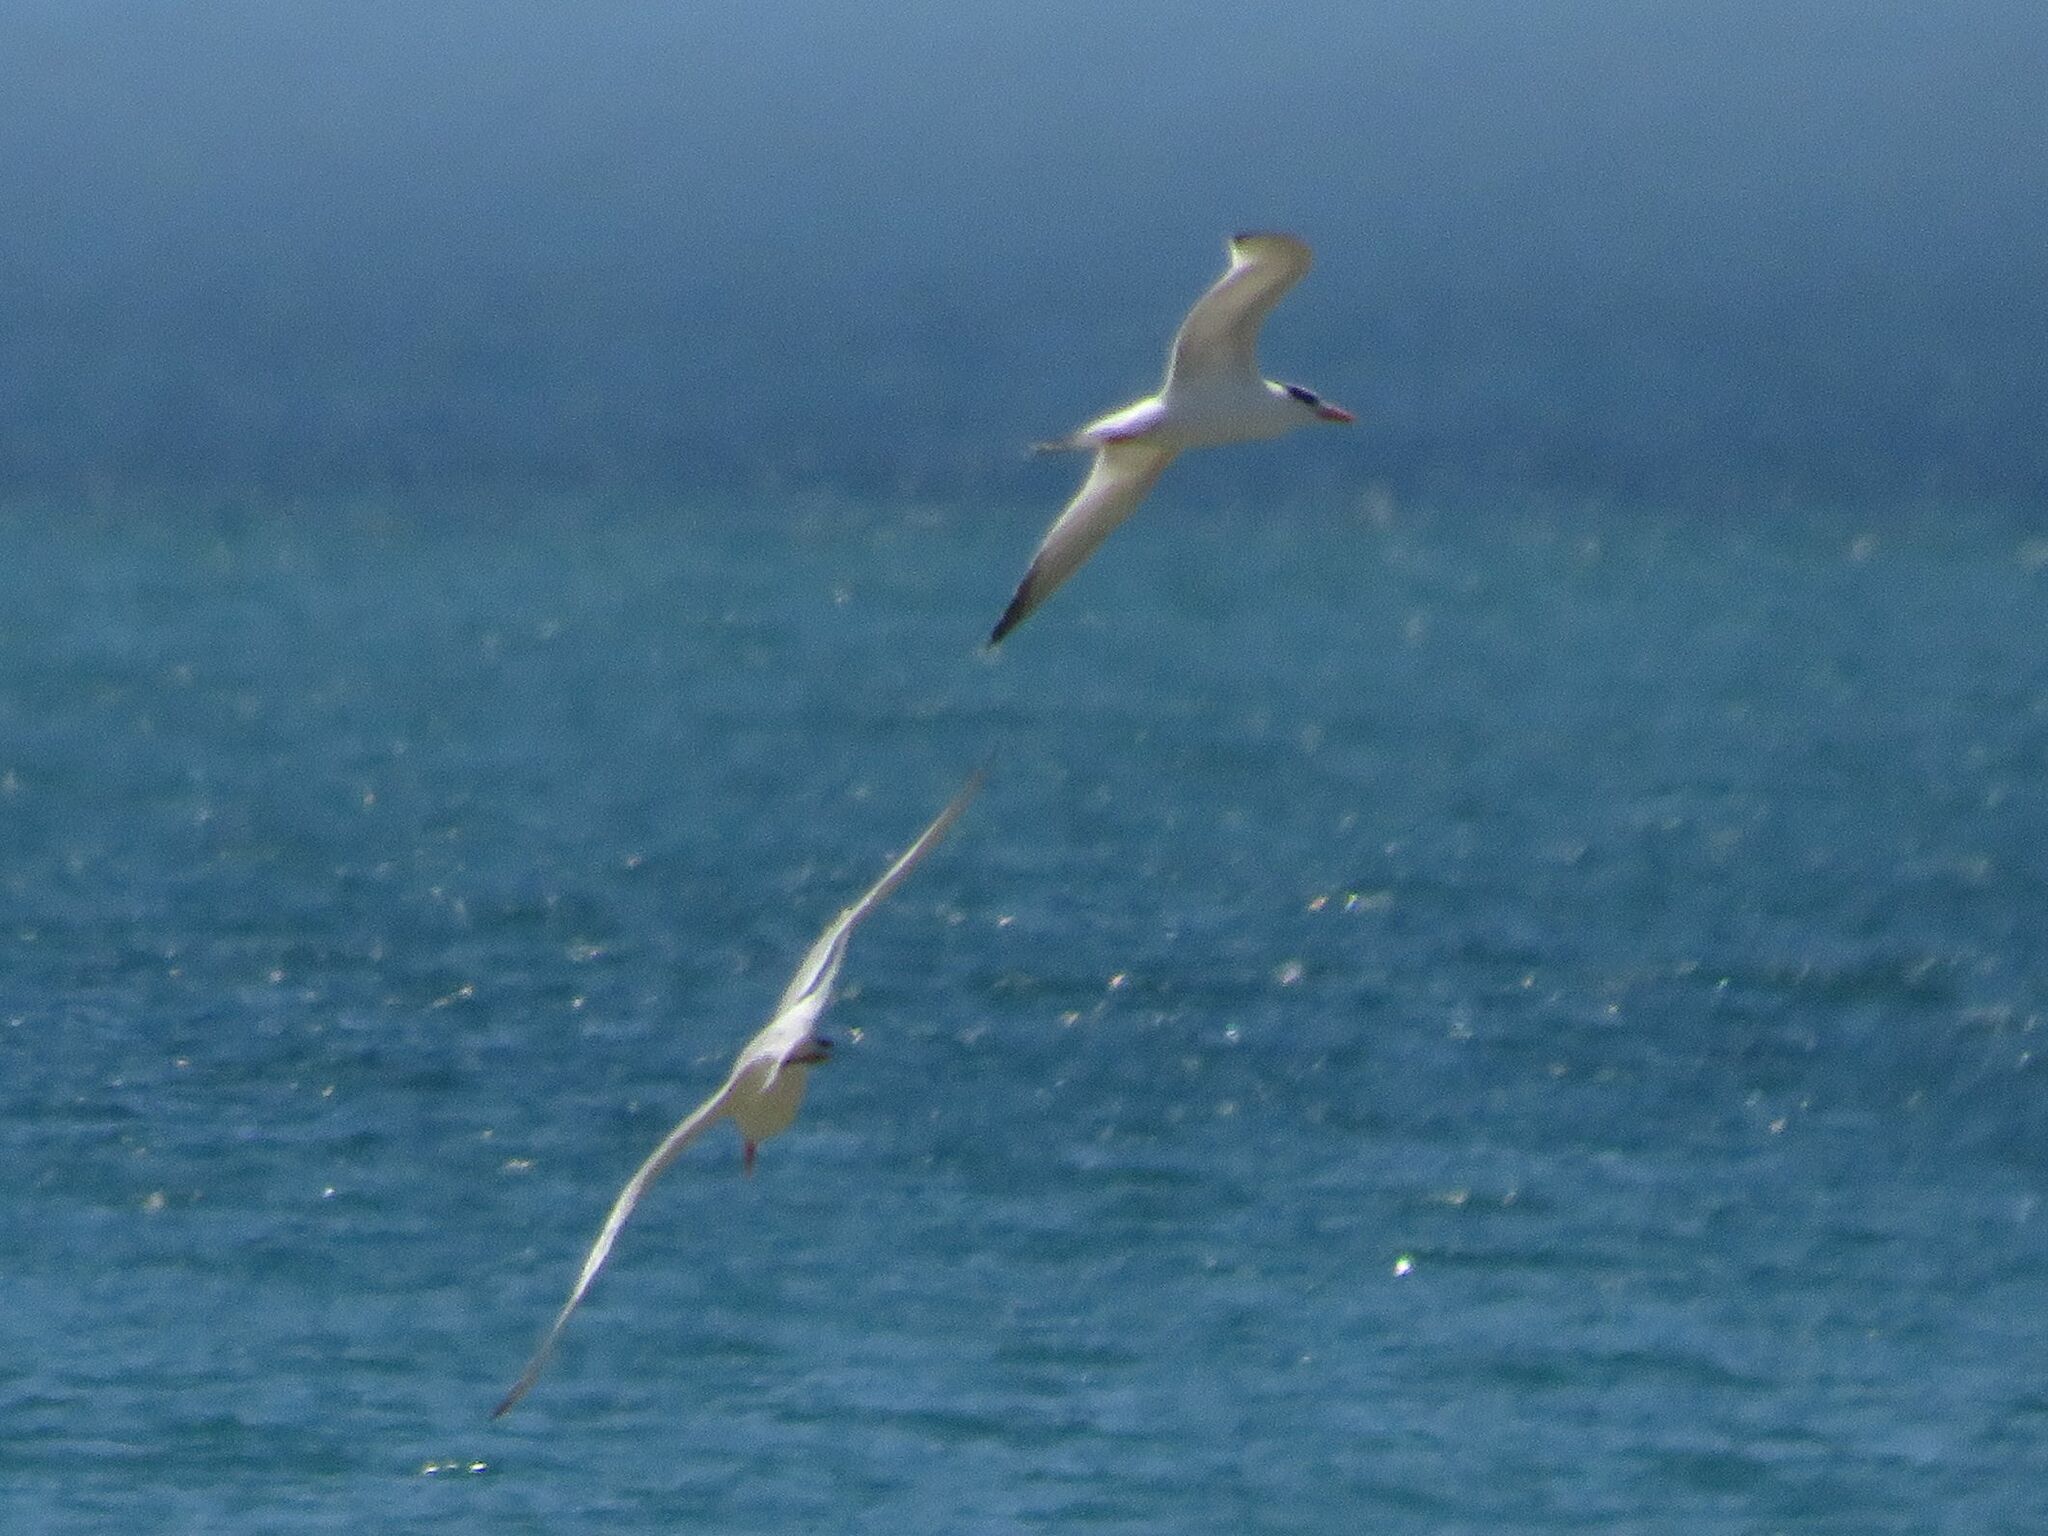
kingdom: Animalia
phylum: Chordata
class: Aves
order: Charadriiformes
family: Laridae
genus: Thalasseus
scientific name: Thalasseus maximus
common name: Royal tern
